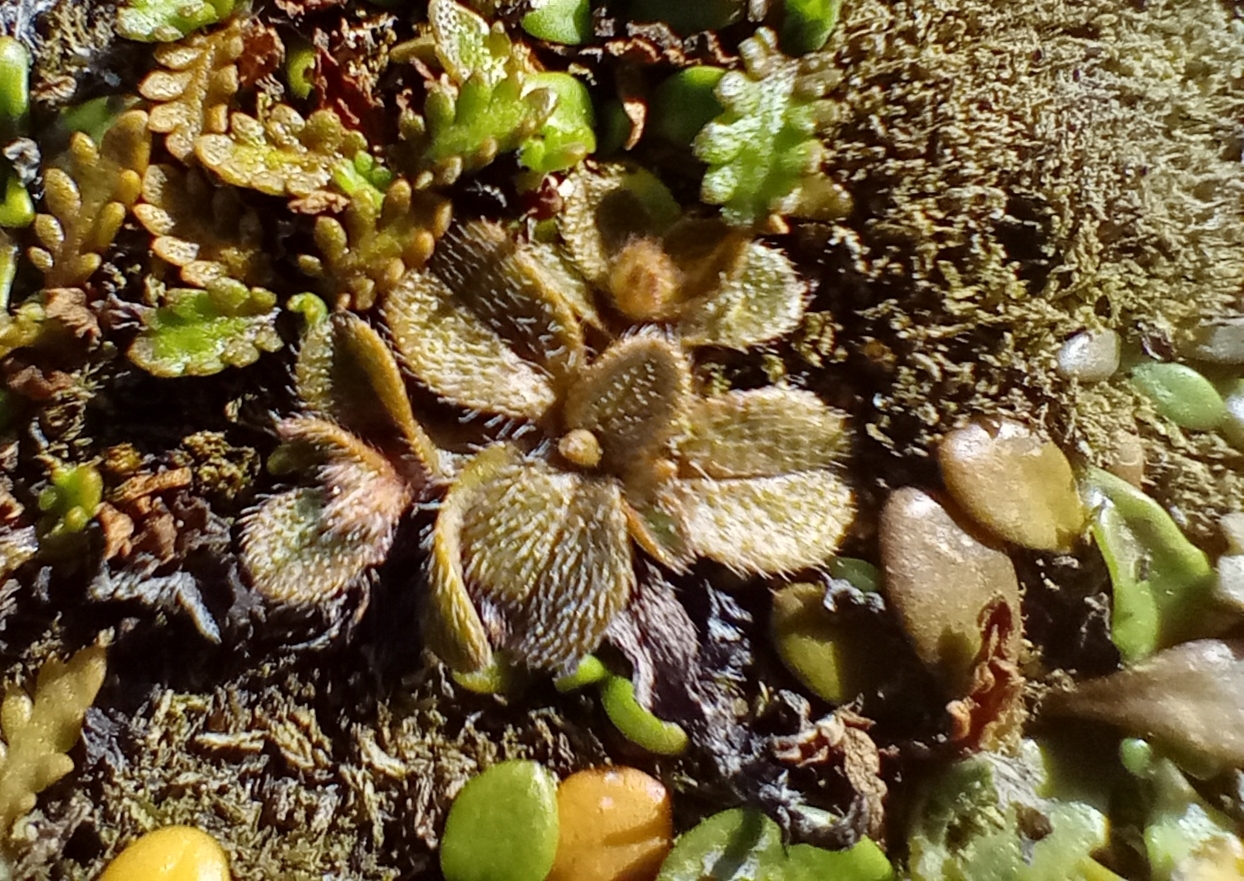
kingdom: Plantae
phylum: Tracheophyta
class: Magnoliopsida
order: Boraginales
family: Boraginaceae
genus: Myosotis
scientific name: Myosotis antarctica
